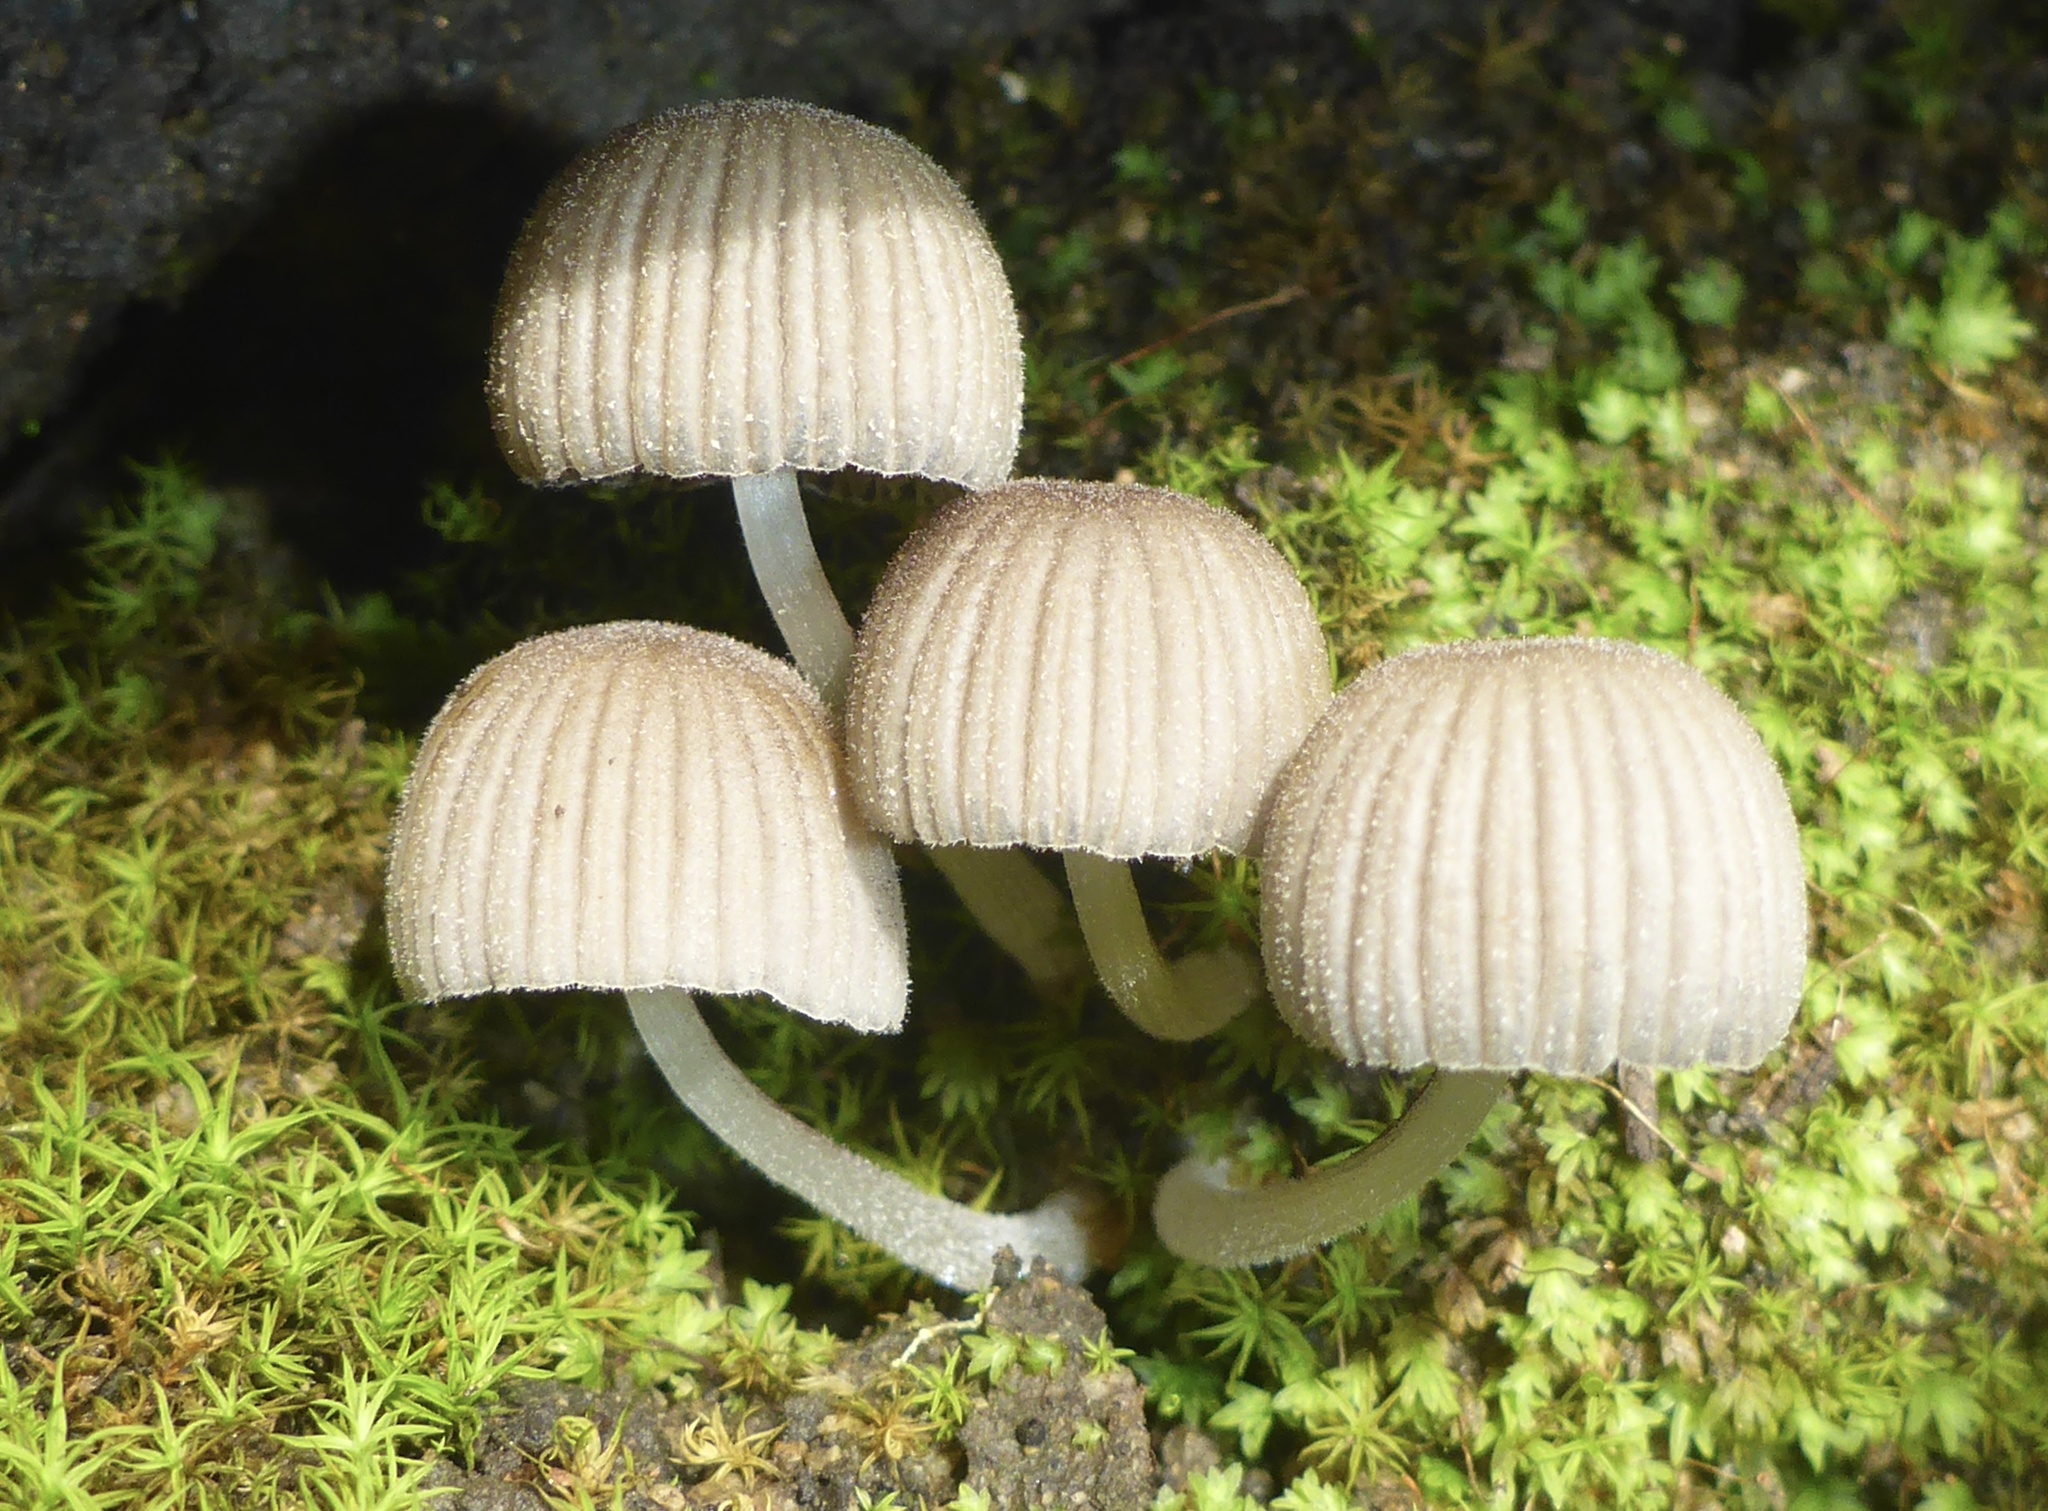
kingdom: Fungi
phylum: Basidiomycota
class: Agaricomycetes
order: Agaricales
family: Psathyrellaceae
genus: Coprinellus
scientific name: Coprinellus disseminatus
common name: Fairies' bonnets
